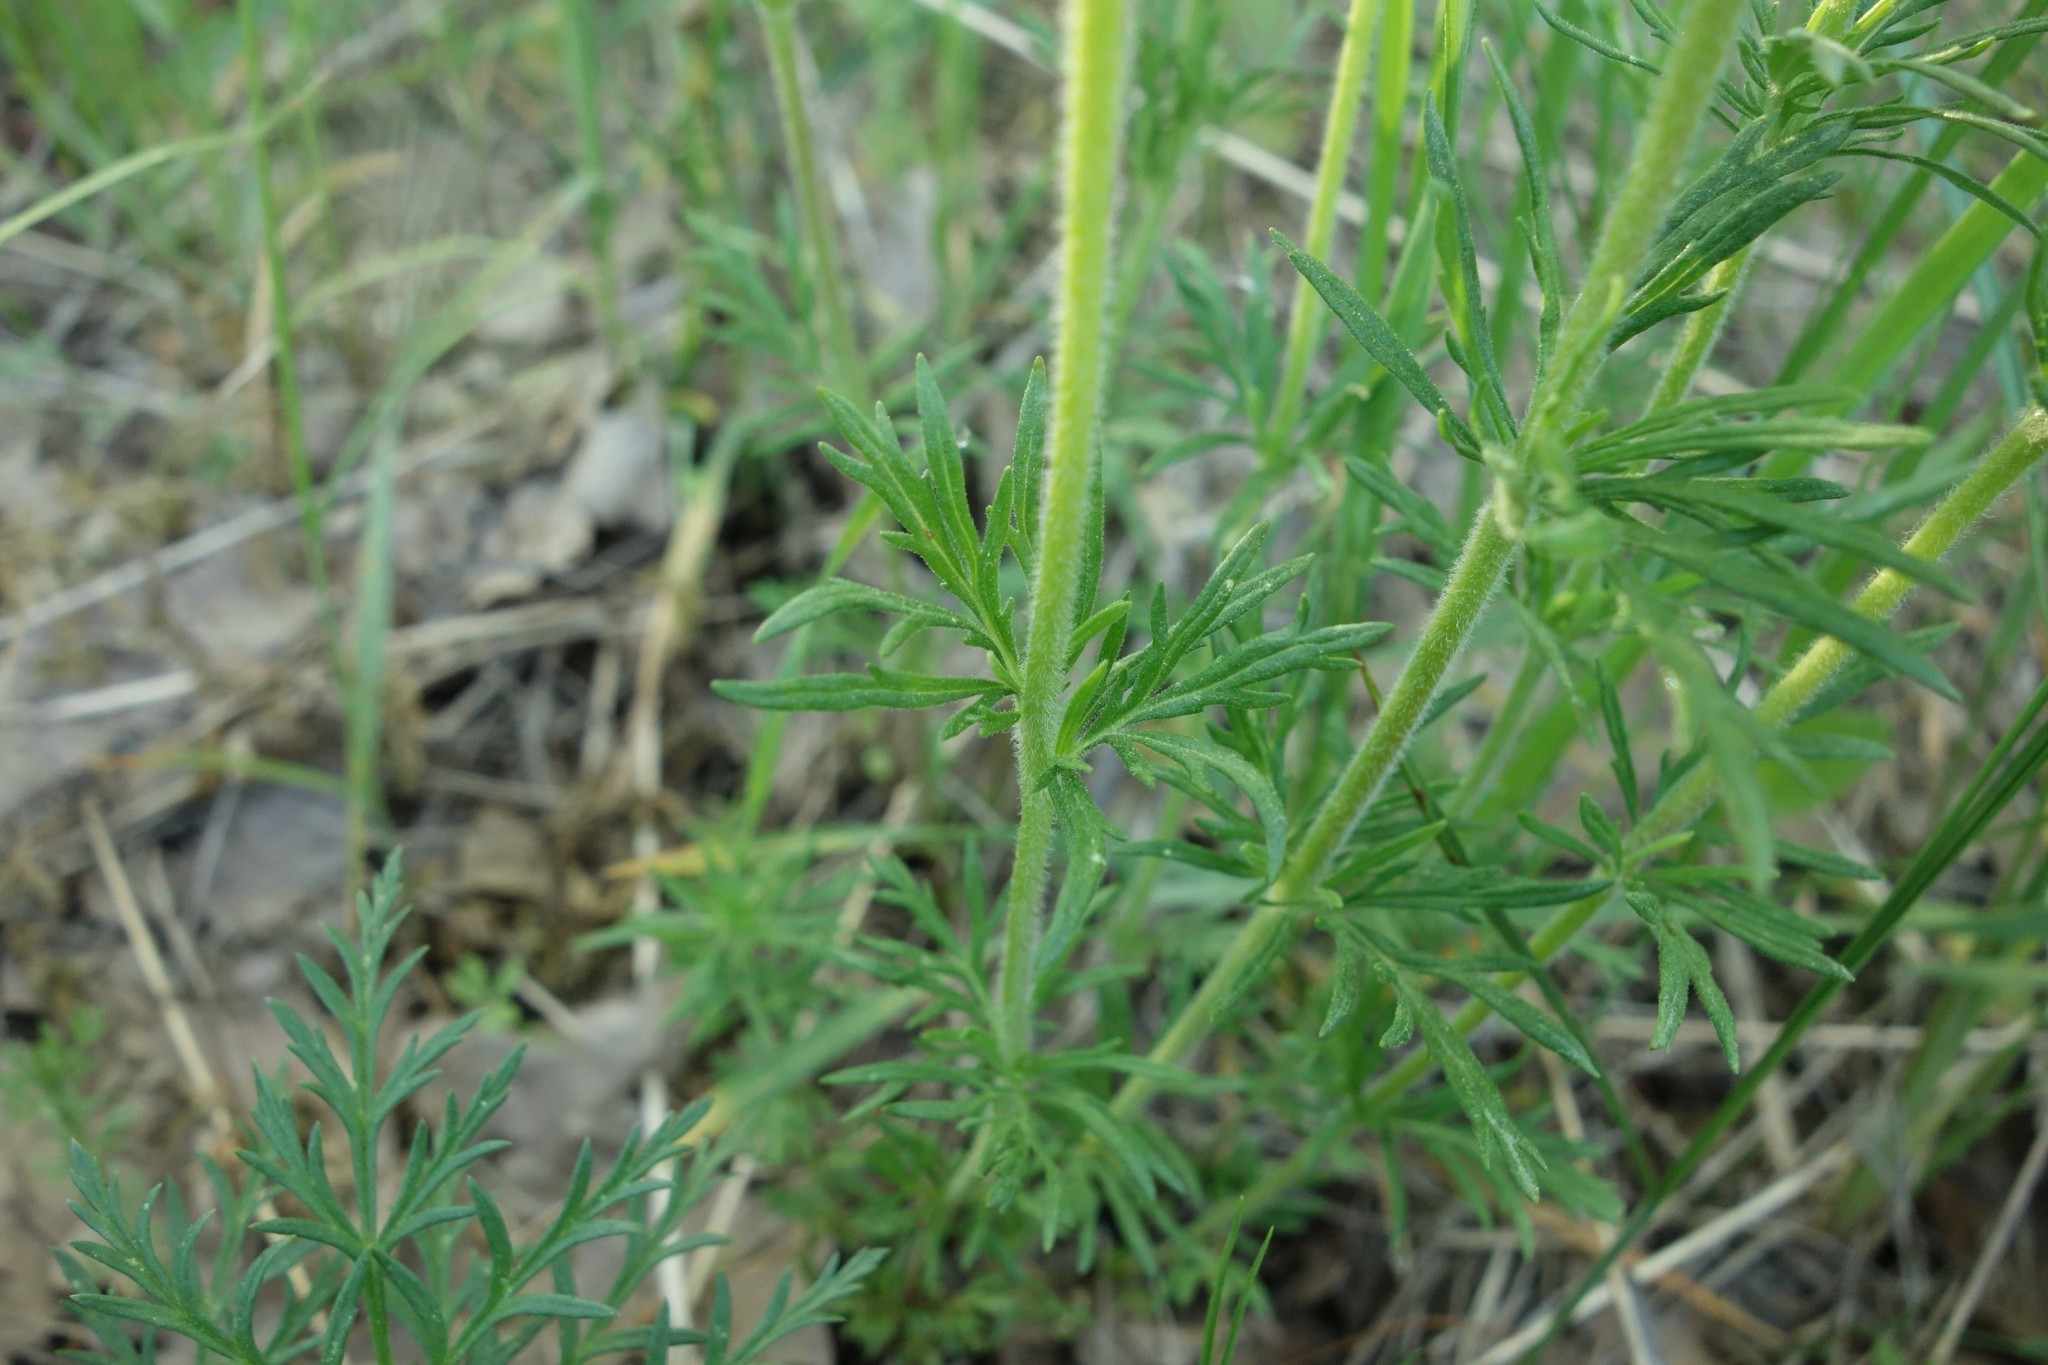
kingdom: Plantae
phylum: Tracheophyta
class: Magnoliopsida
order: Lamiales
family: Plantaginaceae
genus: Veronica
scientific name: Veronica austriaca
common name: Large speedwell
